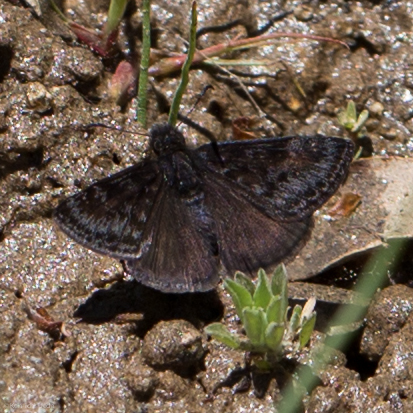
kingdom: Animalia
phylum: Arthropoda
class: Insecta
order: Lepidoptera
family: Hesperiidae
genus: Erynnis
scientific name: Erynnis pacuvius
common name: Pacuvius duskywing
